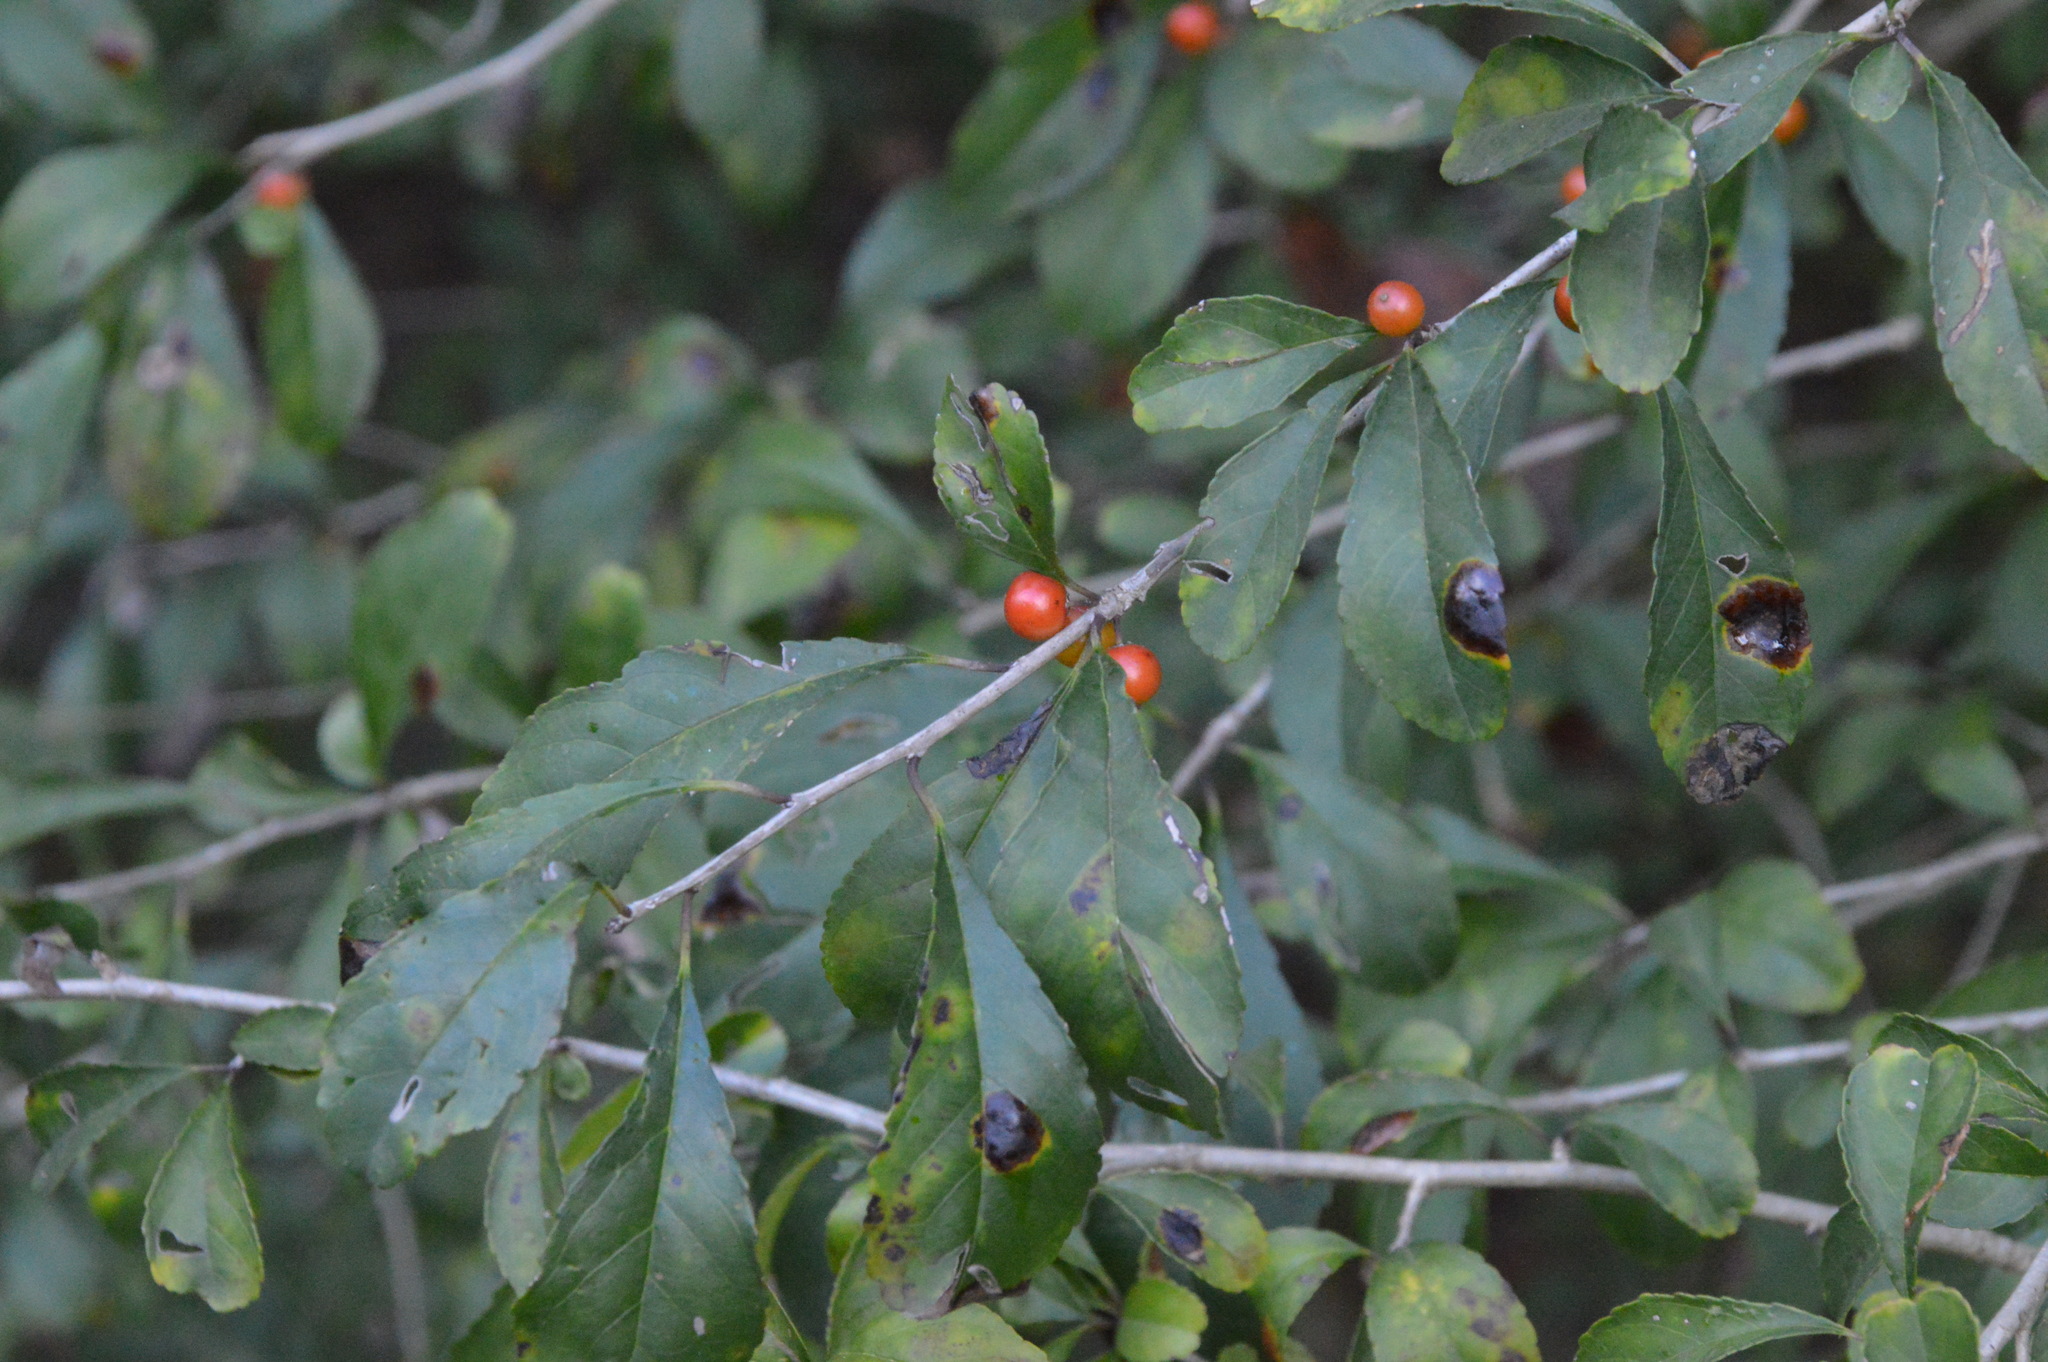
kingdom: Plantae
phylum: Tracheophyta
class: Magnoliopsida
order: Aquifoliales
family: Aquifoliaceae
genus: Ilex
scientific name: Ilex decidua
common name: Possum-haw
